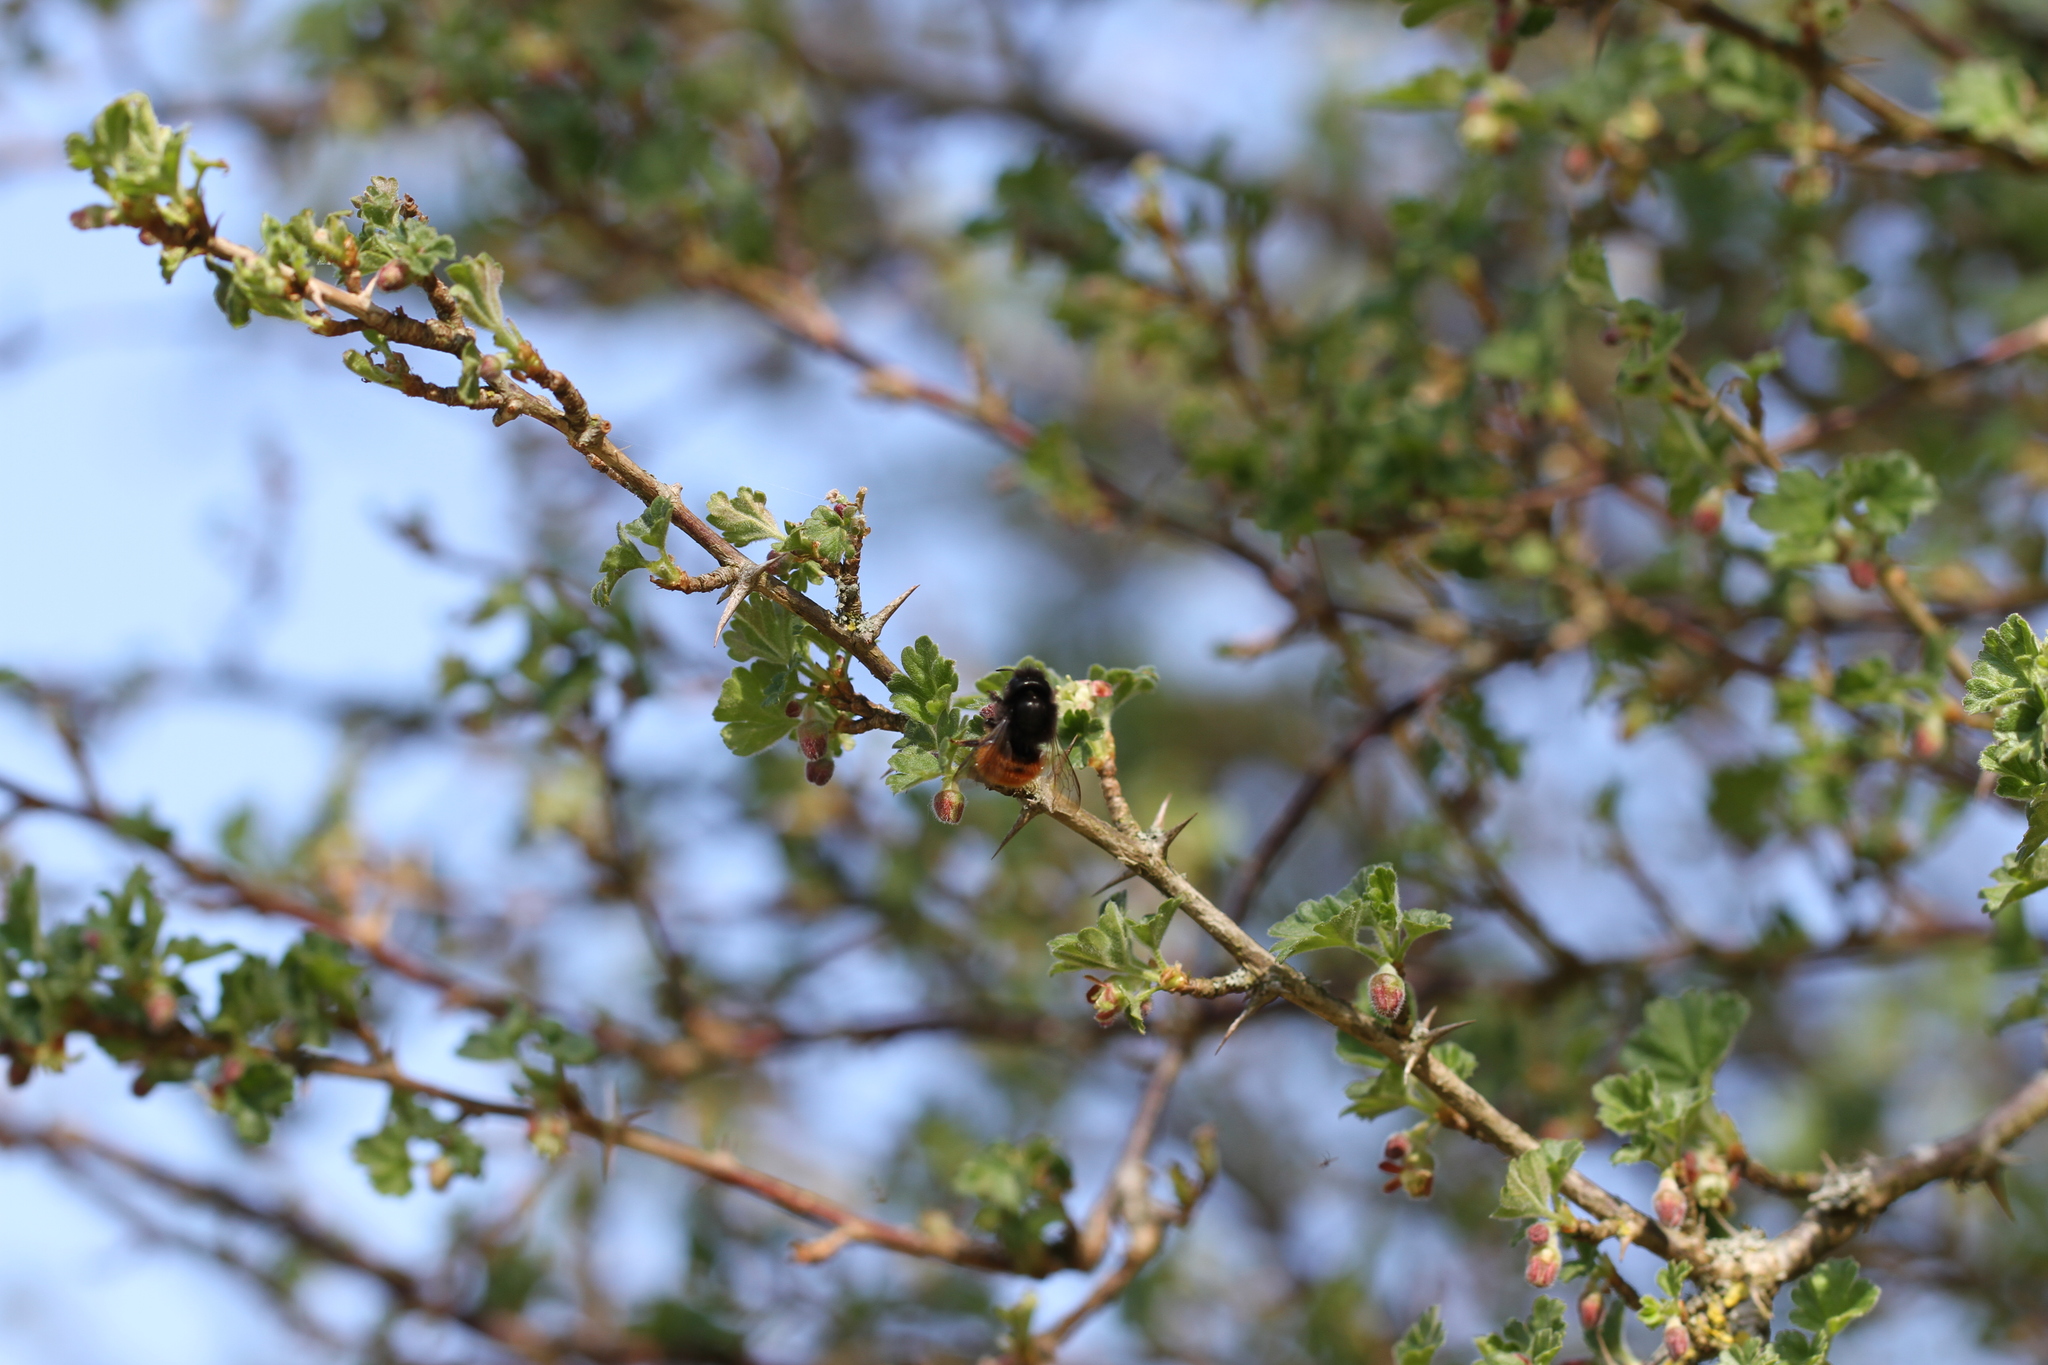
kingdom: Animalia
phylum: Arthropoda
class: Insecta
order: Hymenoptera
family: Megachilidae
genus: Osmia
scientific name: Osmia cornuta
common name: Mason bee
